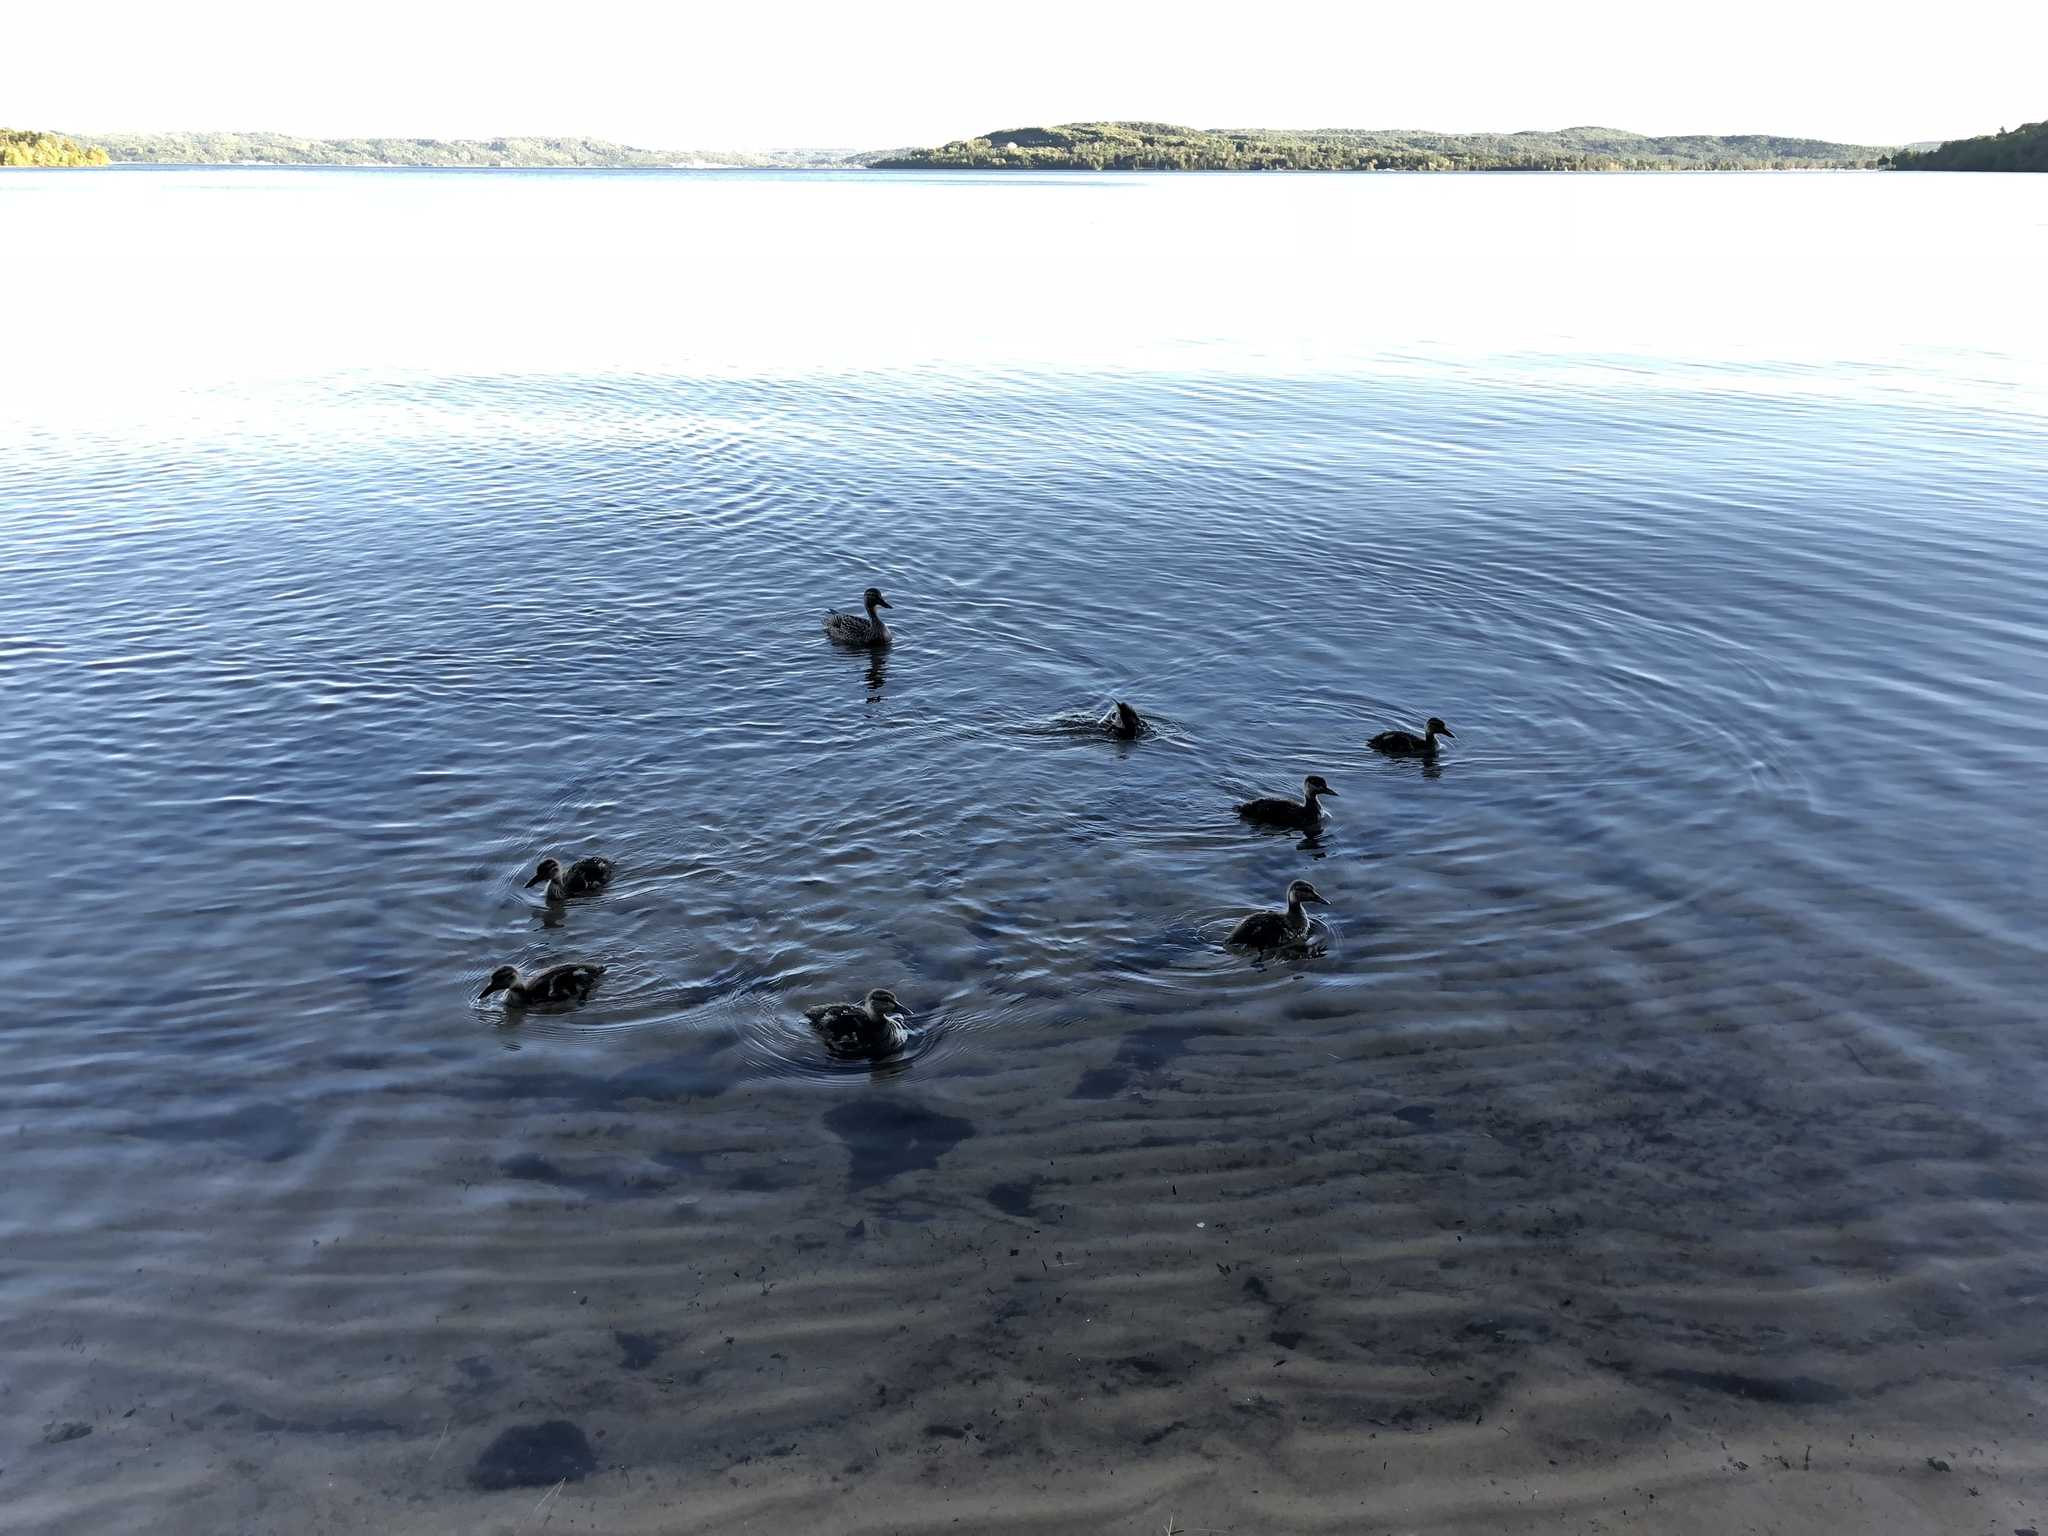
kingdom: Animalia
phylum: Chordata
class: Aves
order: Anseriformes
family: Anatidae
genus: Anas
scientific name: Anas platyrhynchos
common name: Mallard
